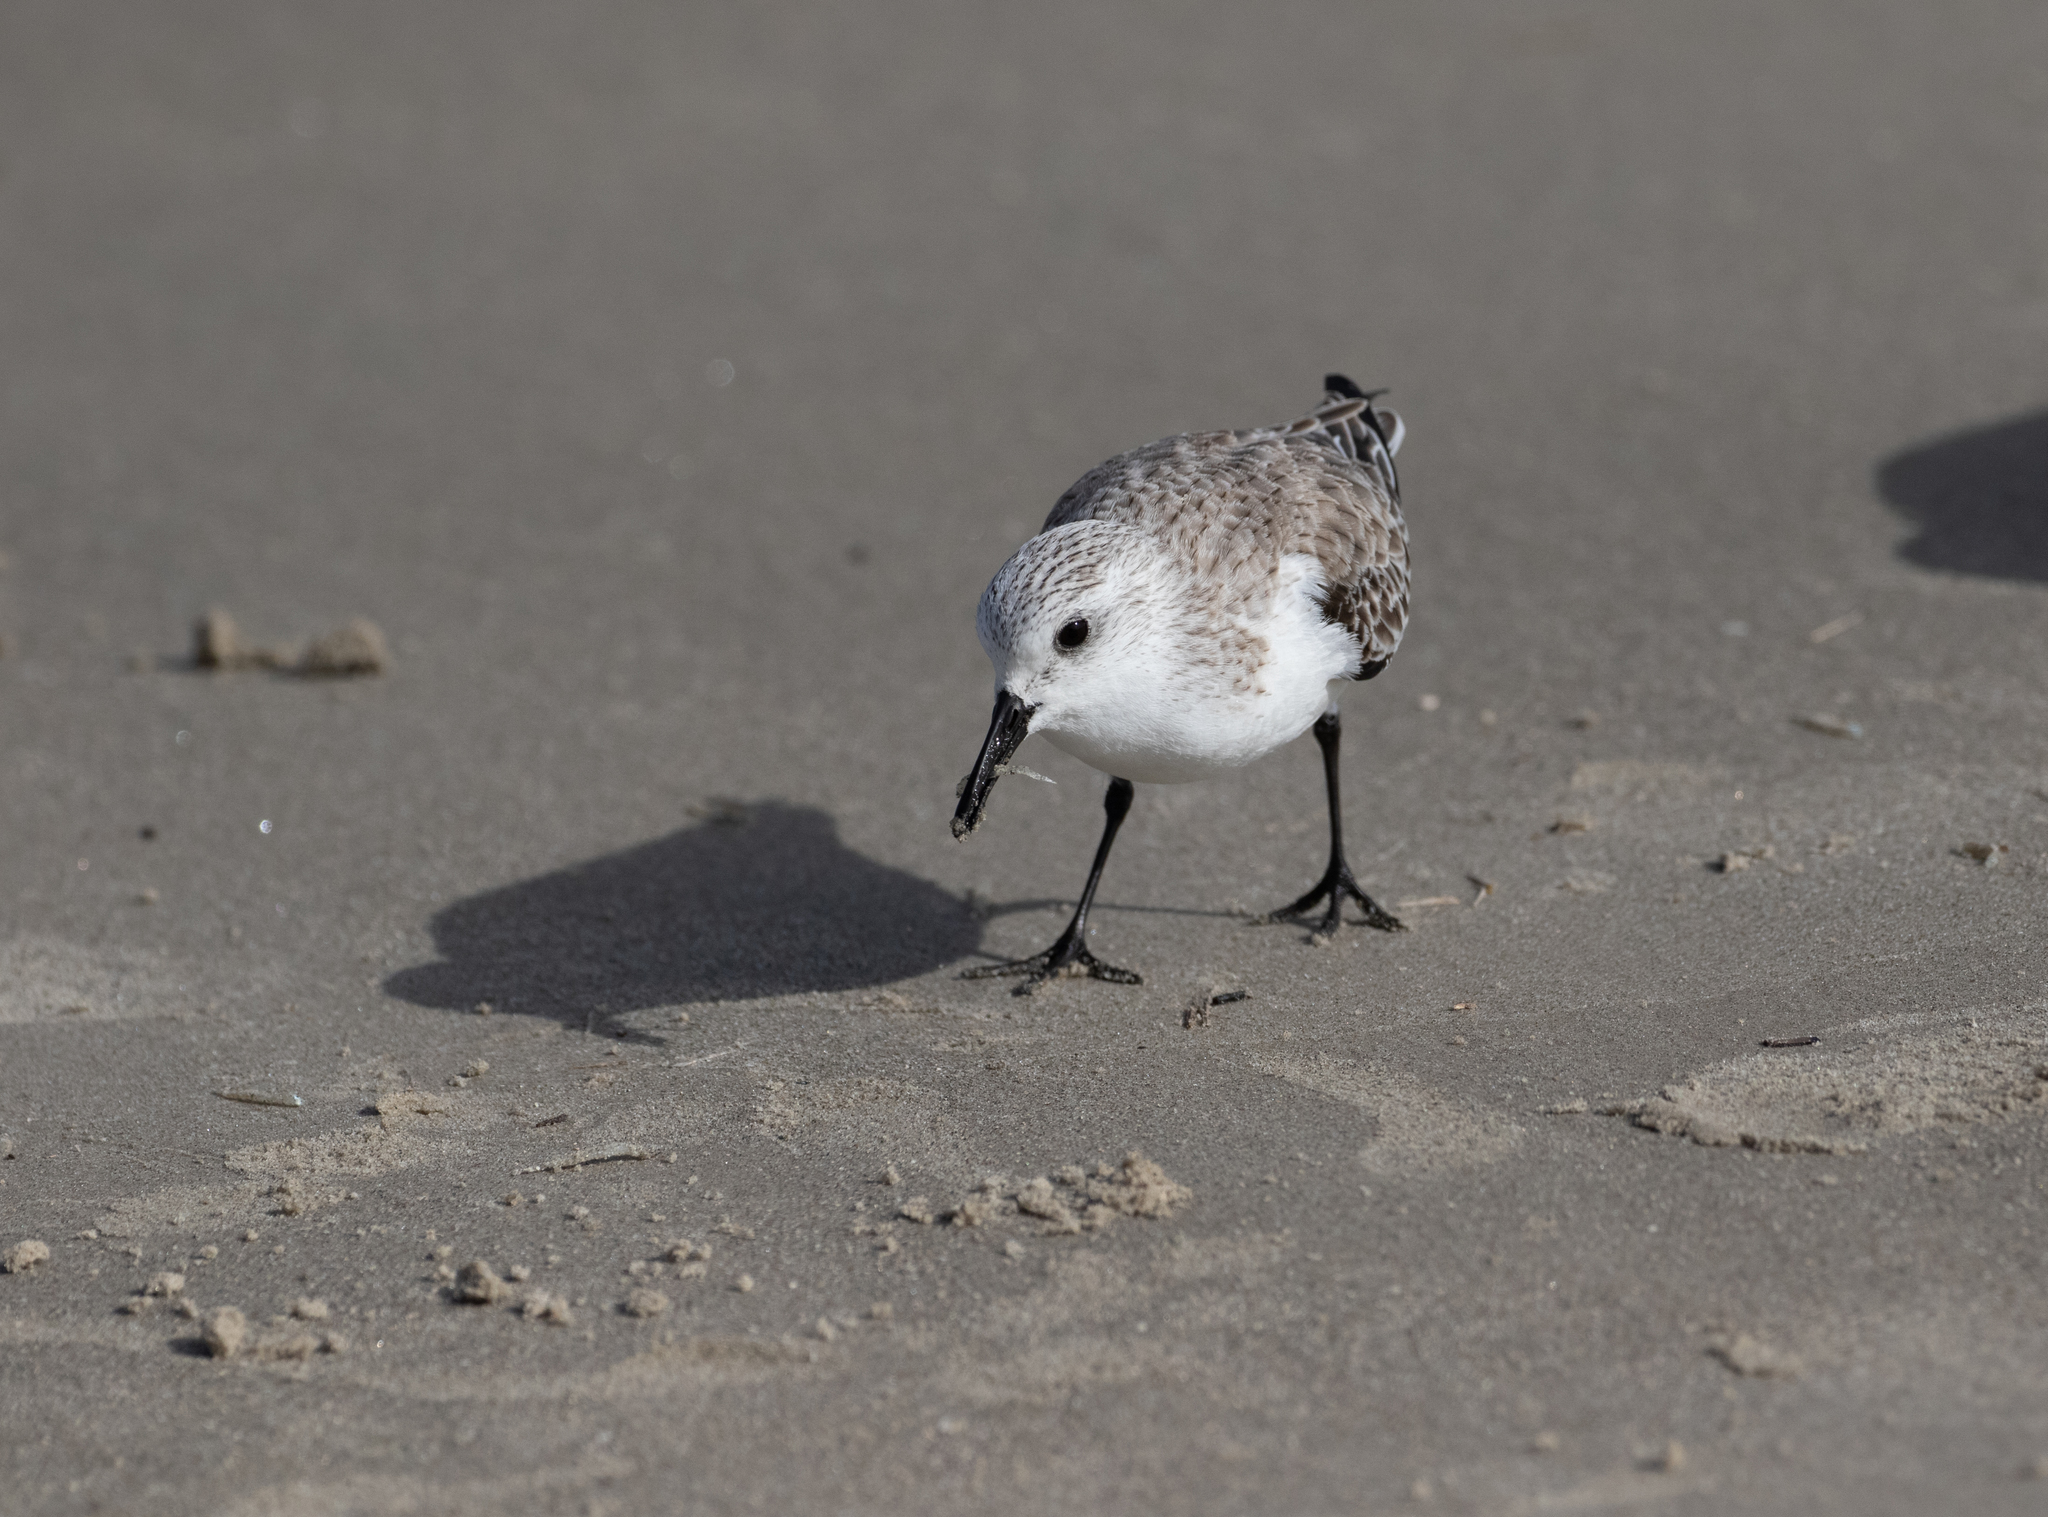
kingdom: Animalia
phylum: Chordata
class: Aves
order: Charadriiformes
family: Scolopacidae
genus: Calidris
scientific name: Calidris alba
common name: Sanderling
